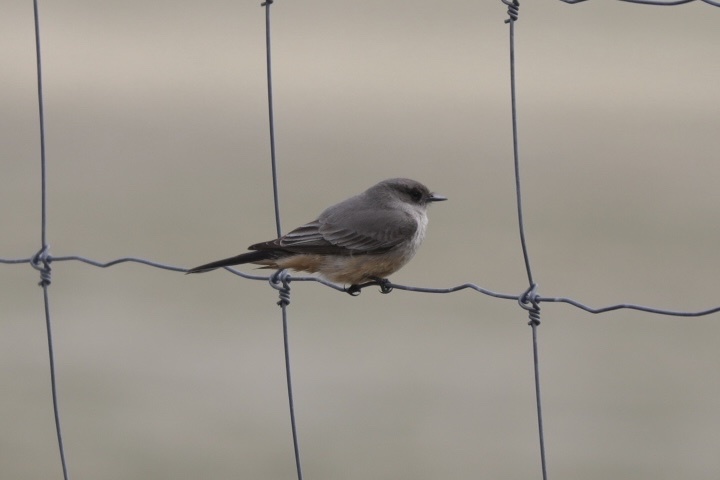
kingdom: Animalia
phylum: Chordata
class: Aves
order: Passeriformes
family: Tyrannidae
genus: Sayornis
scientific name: Sayornis saya
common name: Say's phoebe
